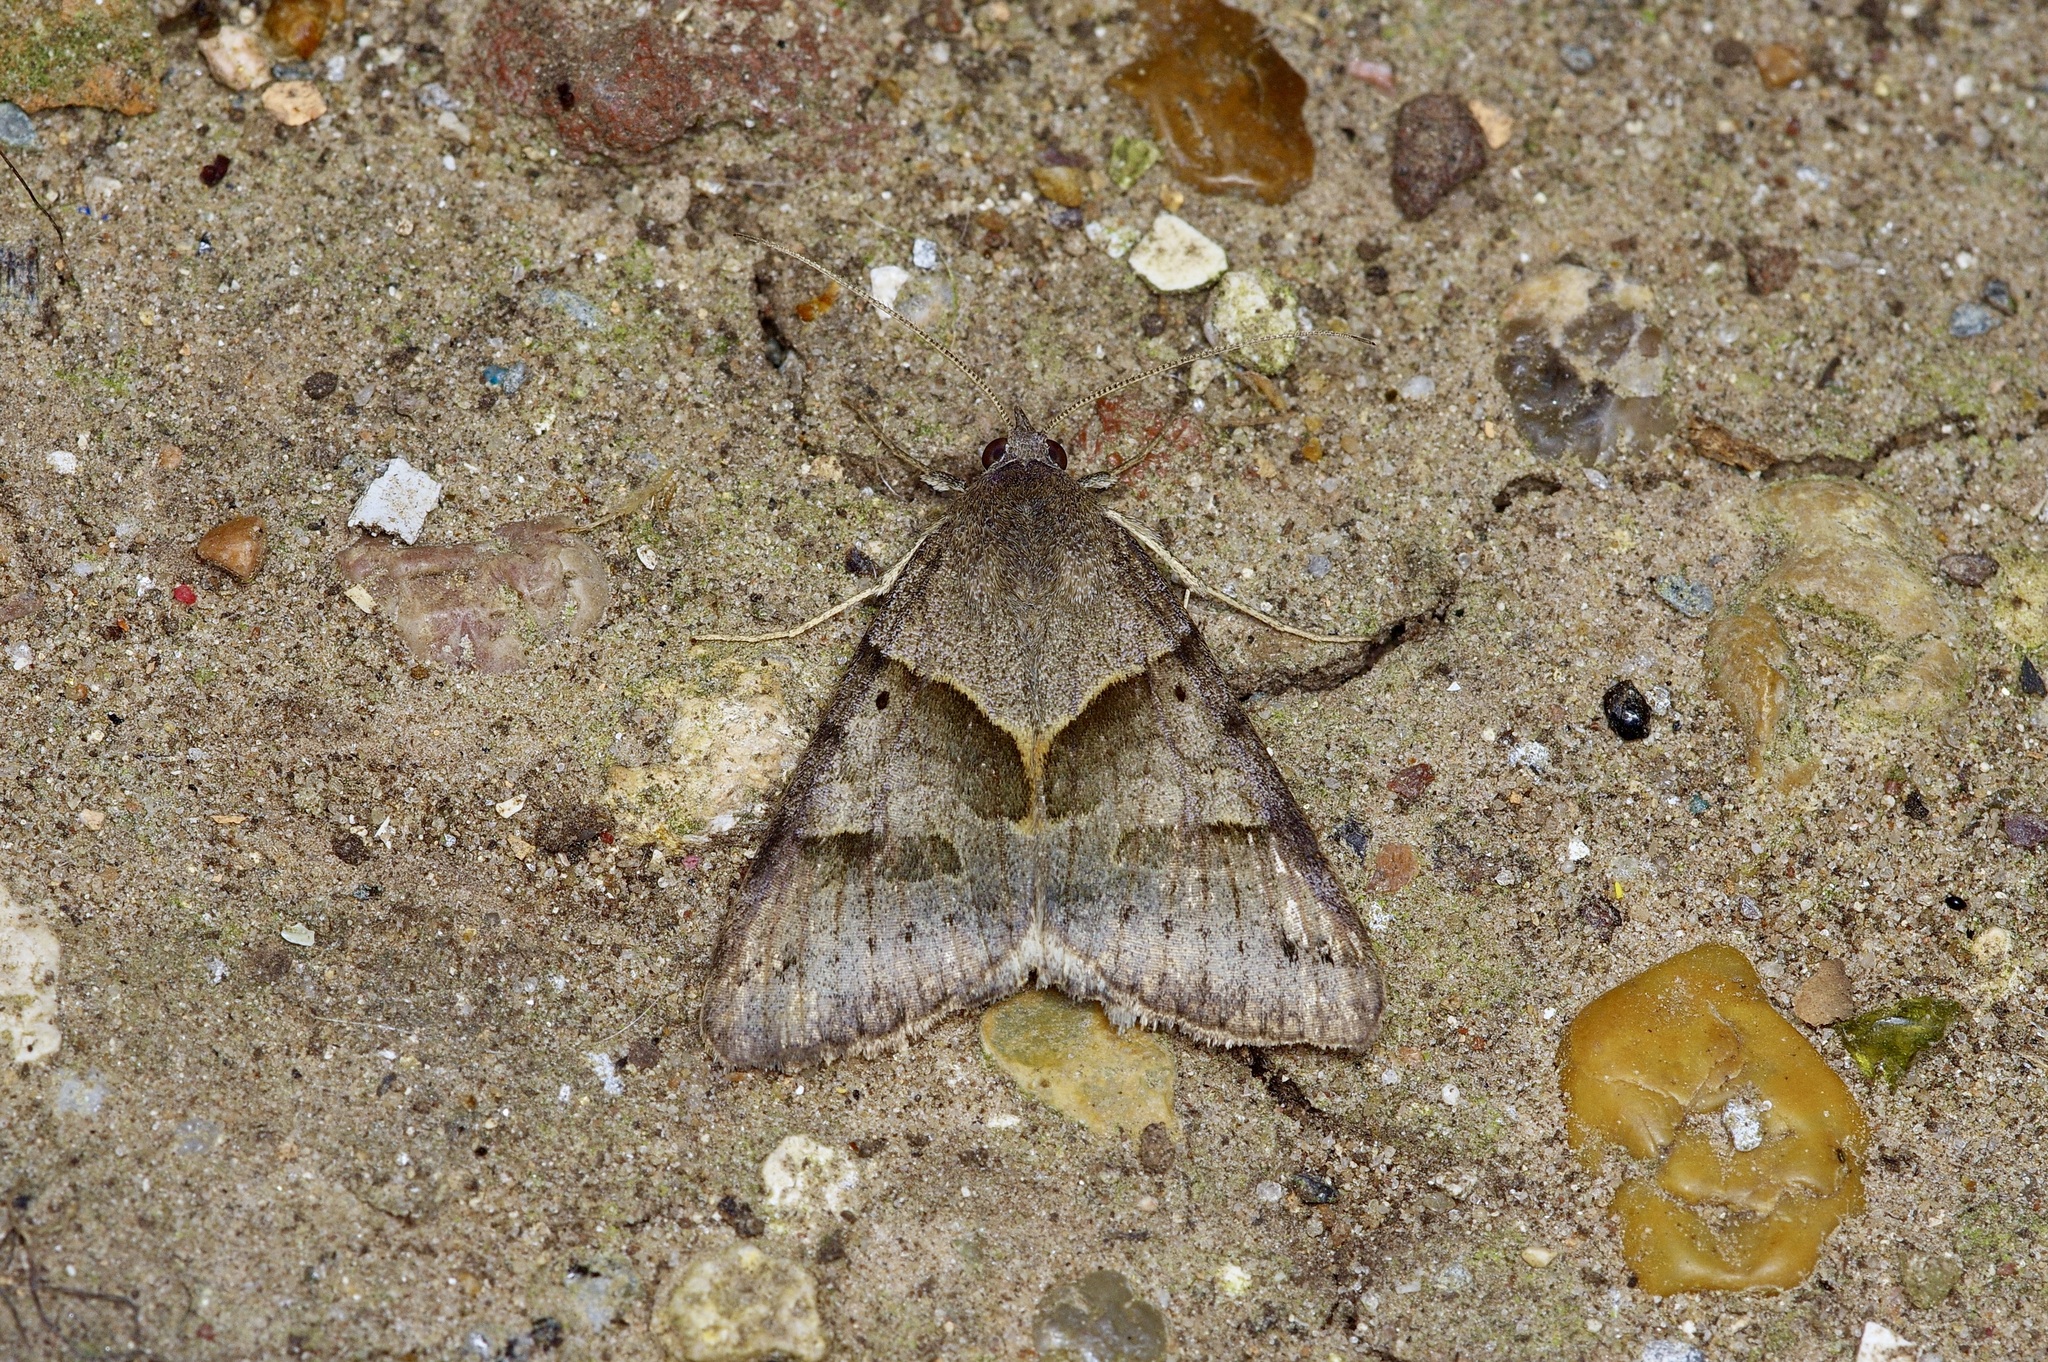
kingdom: Animalia
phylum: Arthropoda
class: Insecta
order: Lepidoptera
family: Erebidae
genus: Caenurgina
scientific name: Caenurgina erechtea
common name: Forage looper moth
